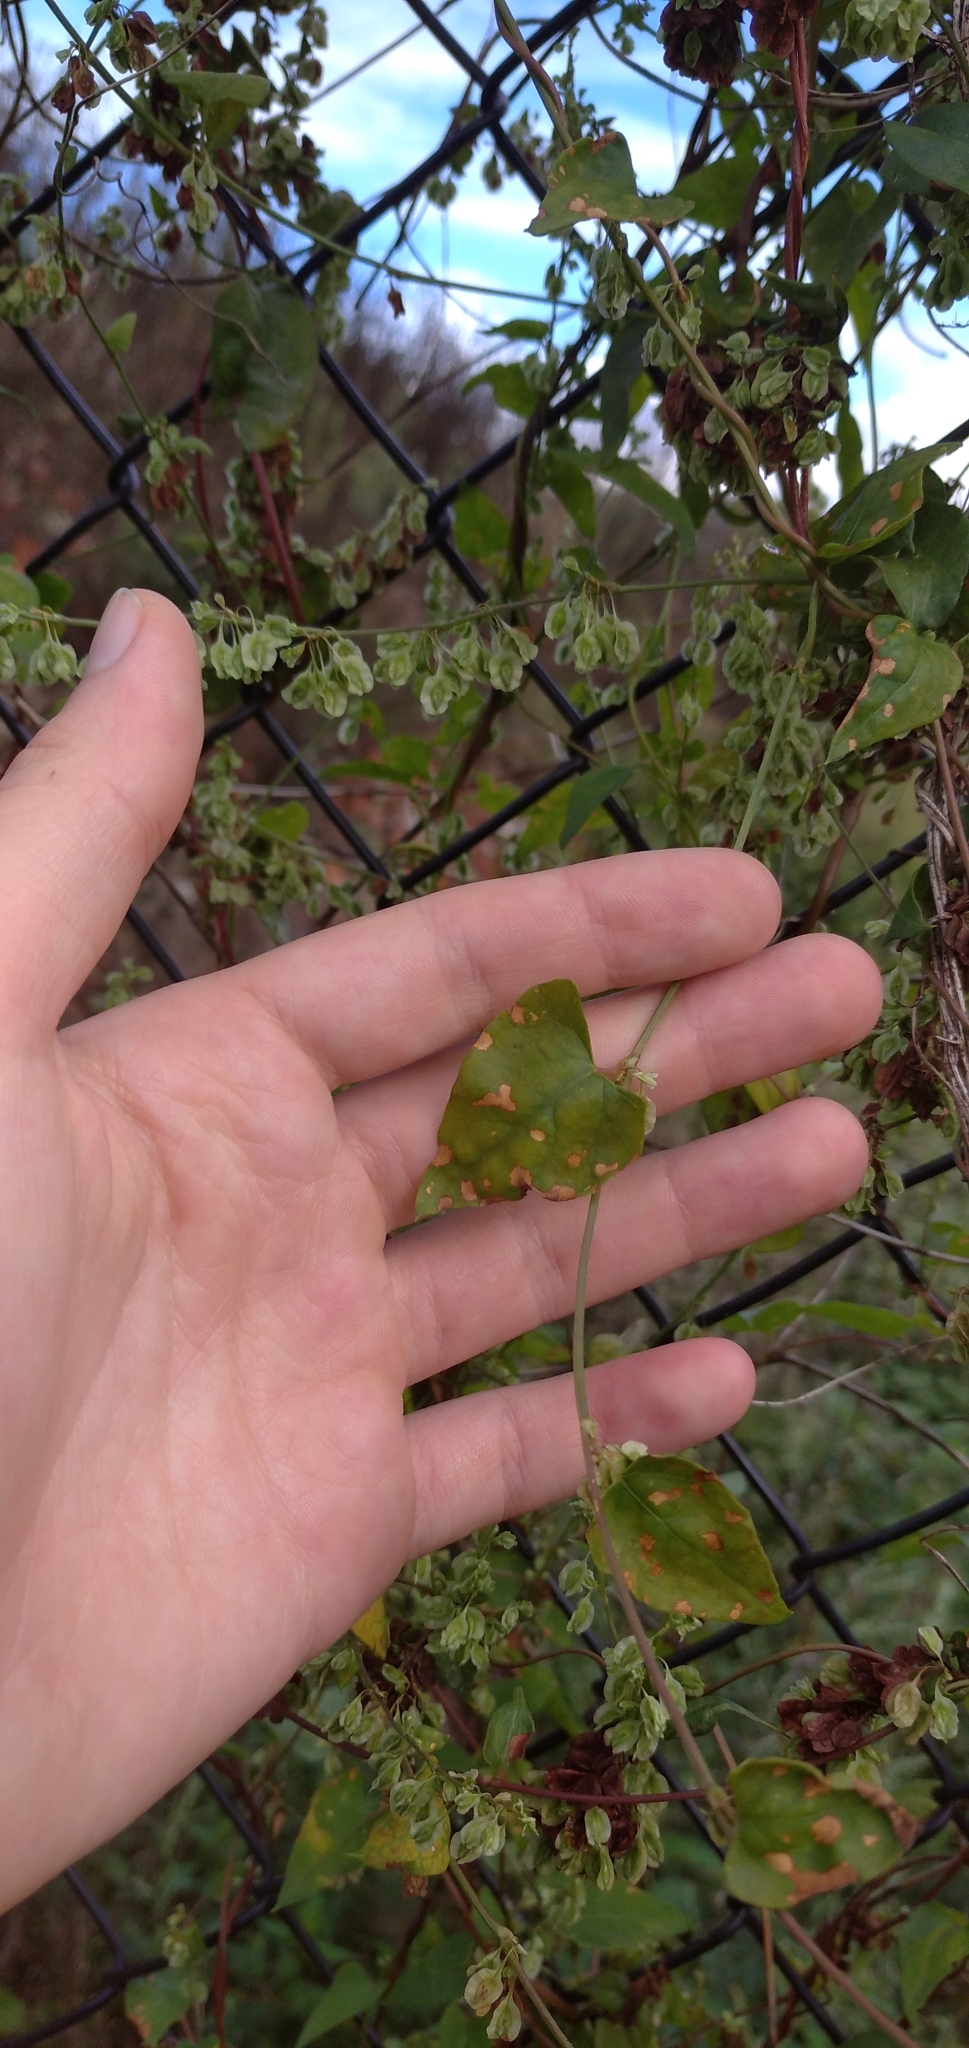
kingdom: Plantae
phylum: Tracheophyta
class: Magnoliopsida
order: Caryophyllales
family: Polygonaceae
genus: Fallopia
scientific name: Fallopia dumetorum
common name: Copse-bindweed
